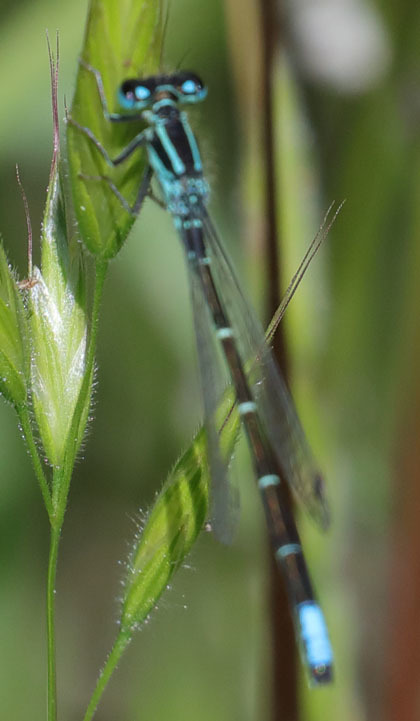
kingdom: Animalia
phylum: Arthropoda
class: Insecta
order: Odonata
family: Coenagrionidae
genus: Ischnura
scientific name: Ischnura perparva
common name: Western forktail
